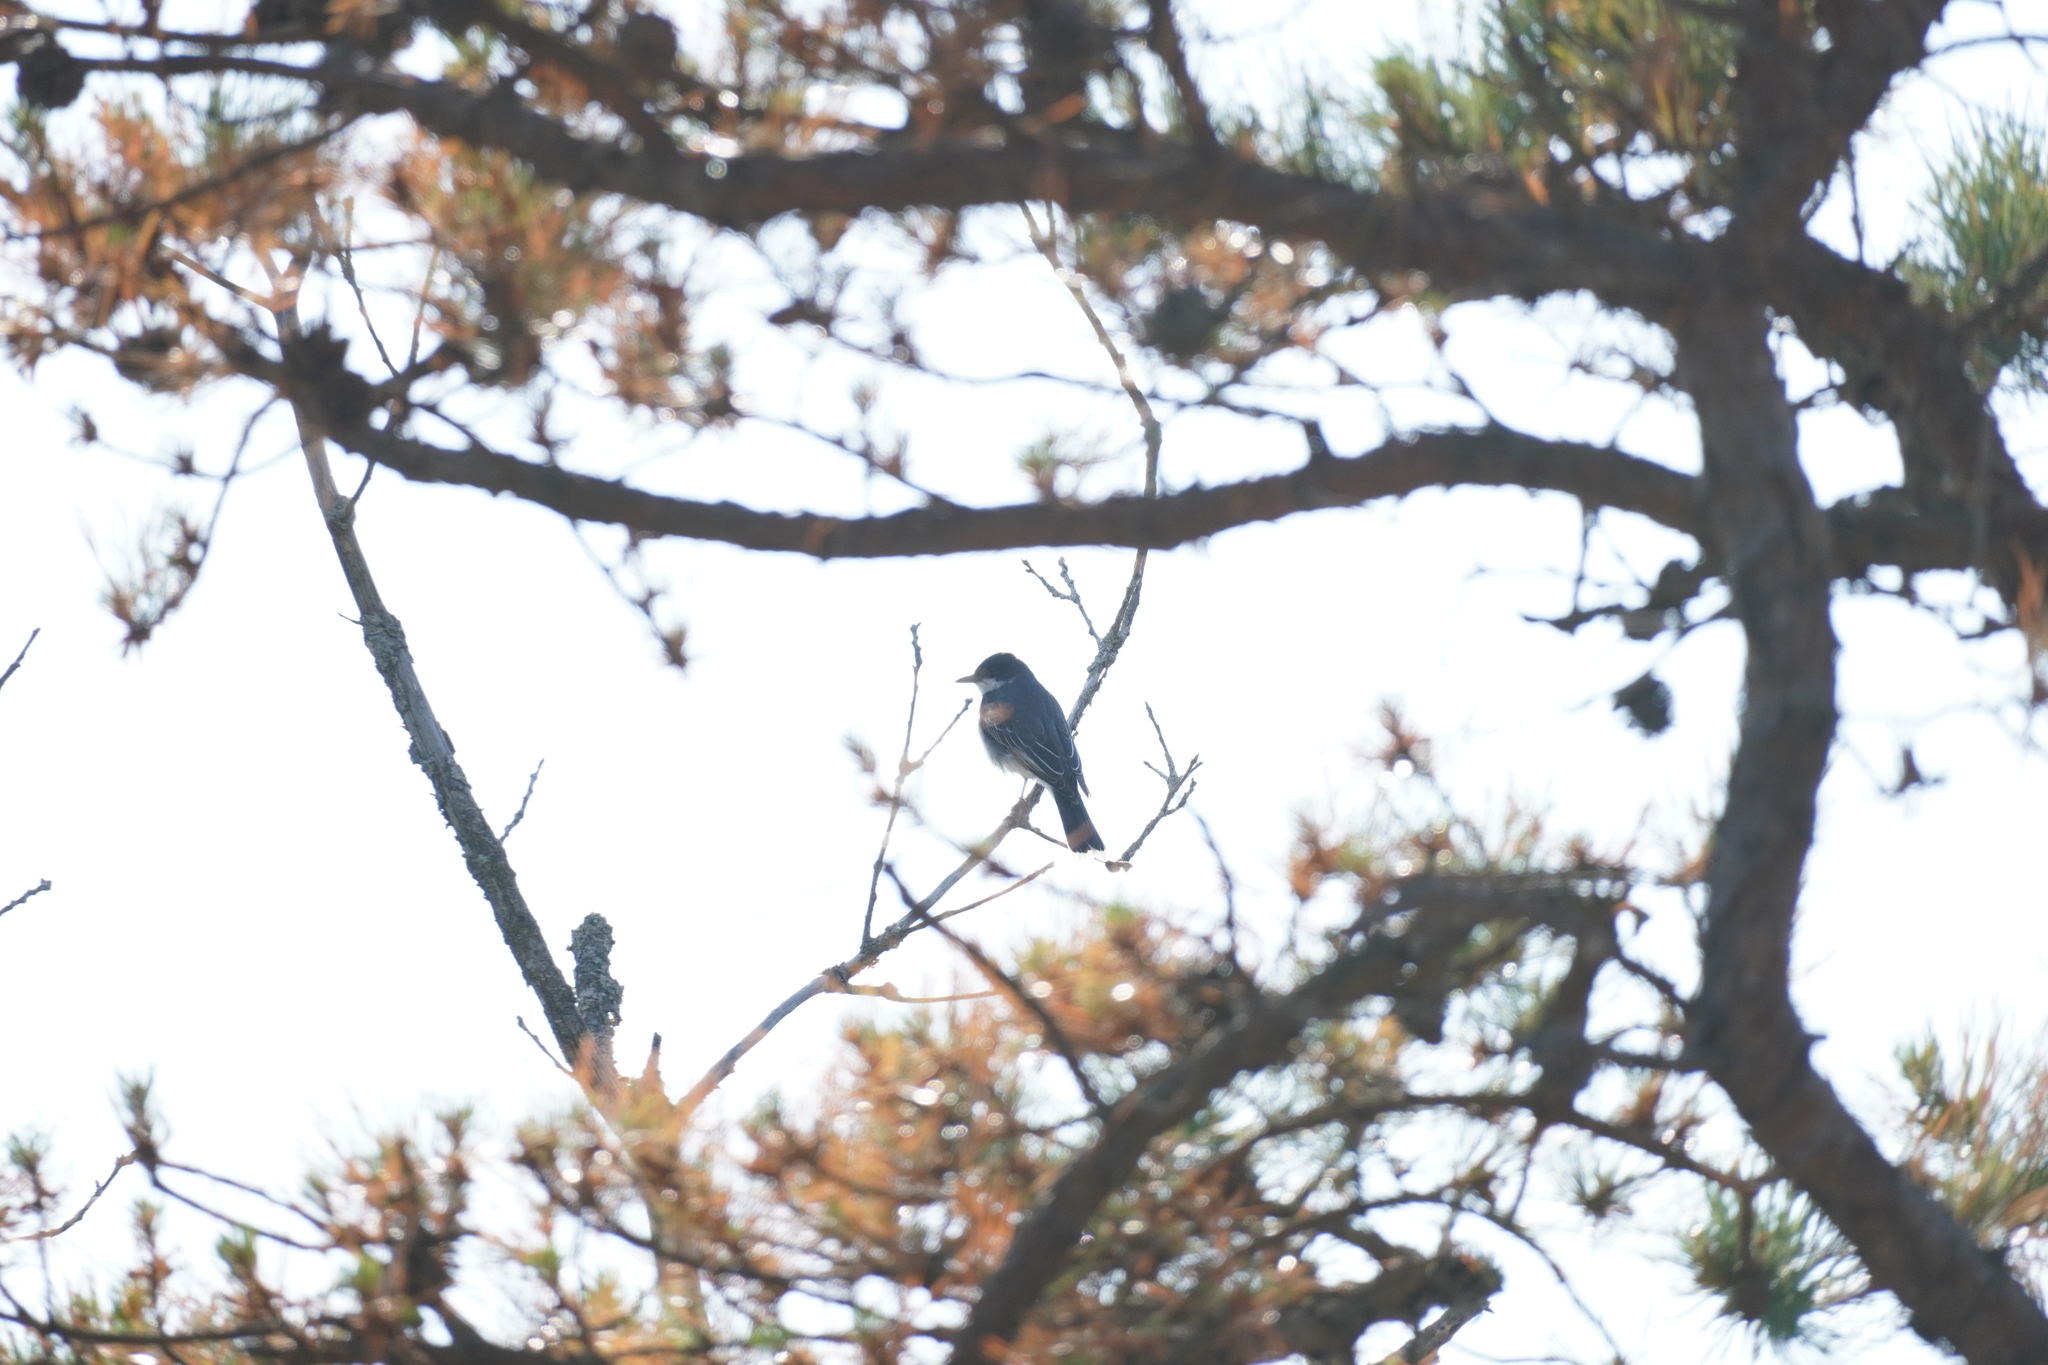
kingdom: Animalia
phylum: Chordata
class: Aves
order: Passeriformes
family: Tyrannidae
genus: Tyrannus
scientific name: Tyrannus tyrannus
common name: Eastern kingbird
